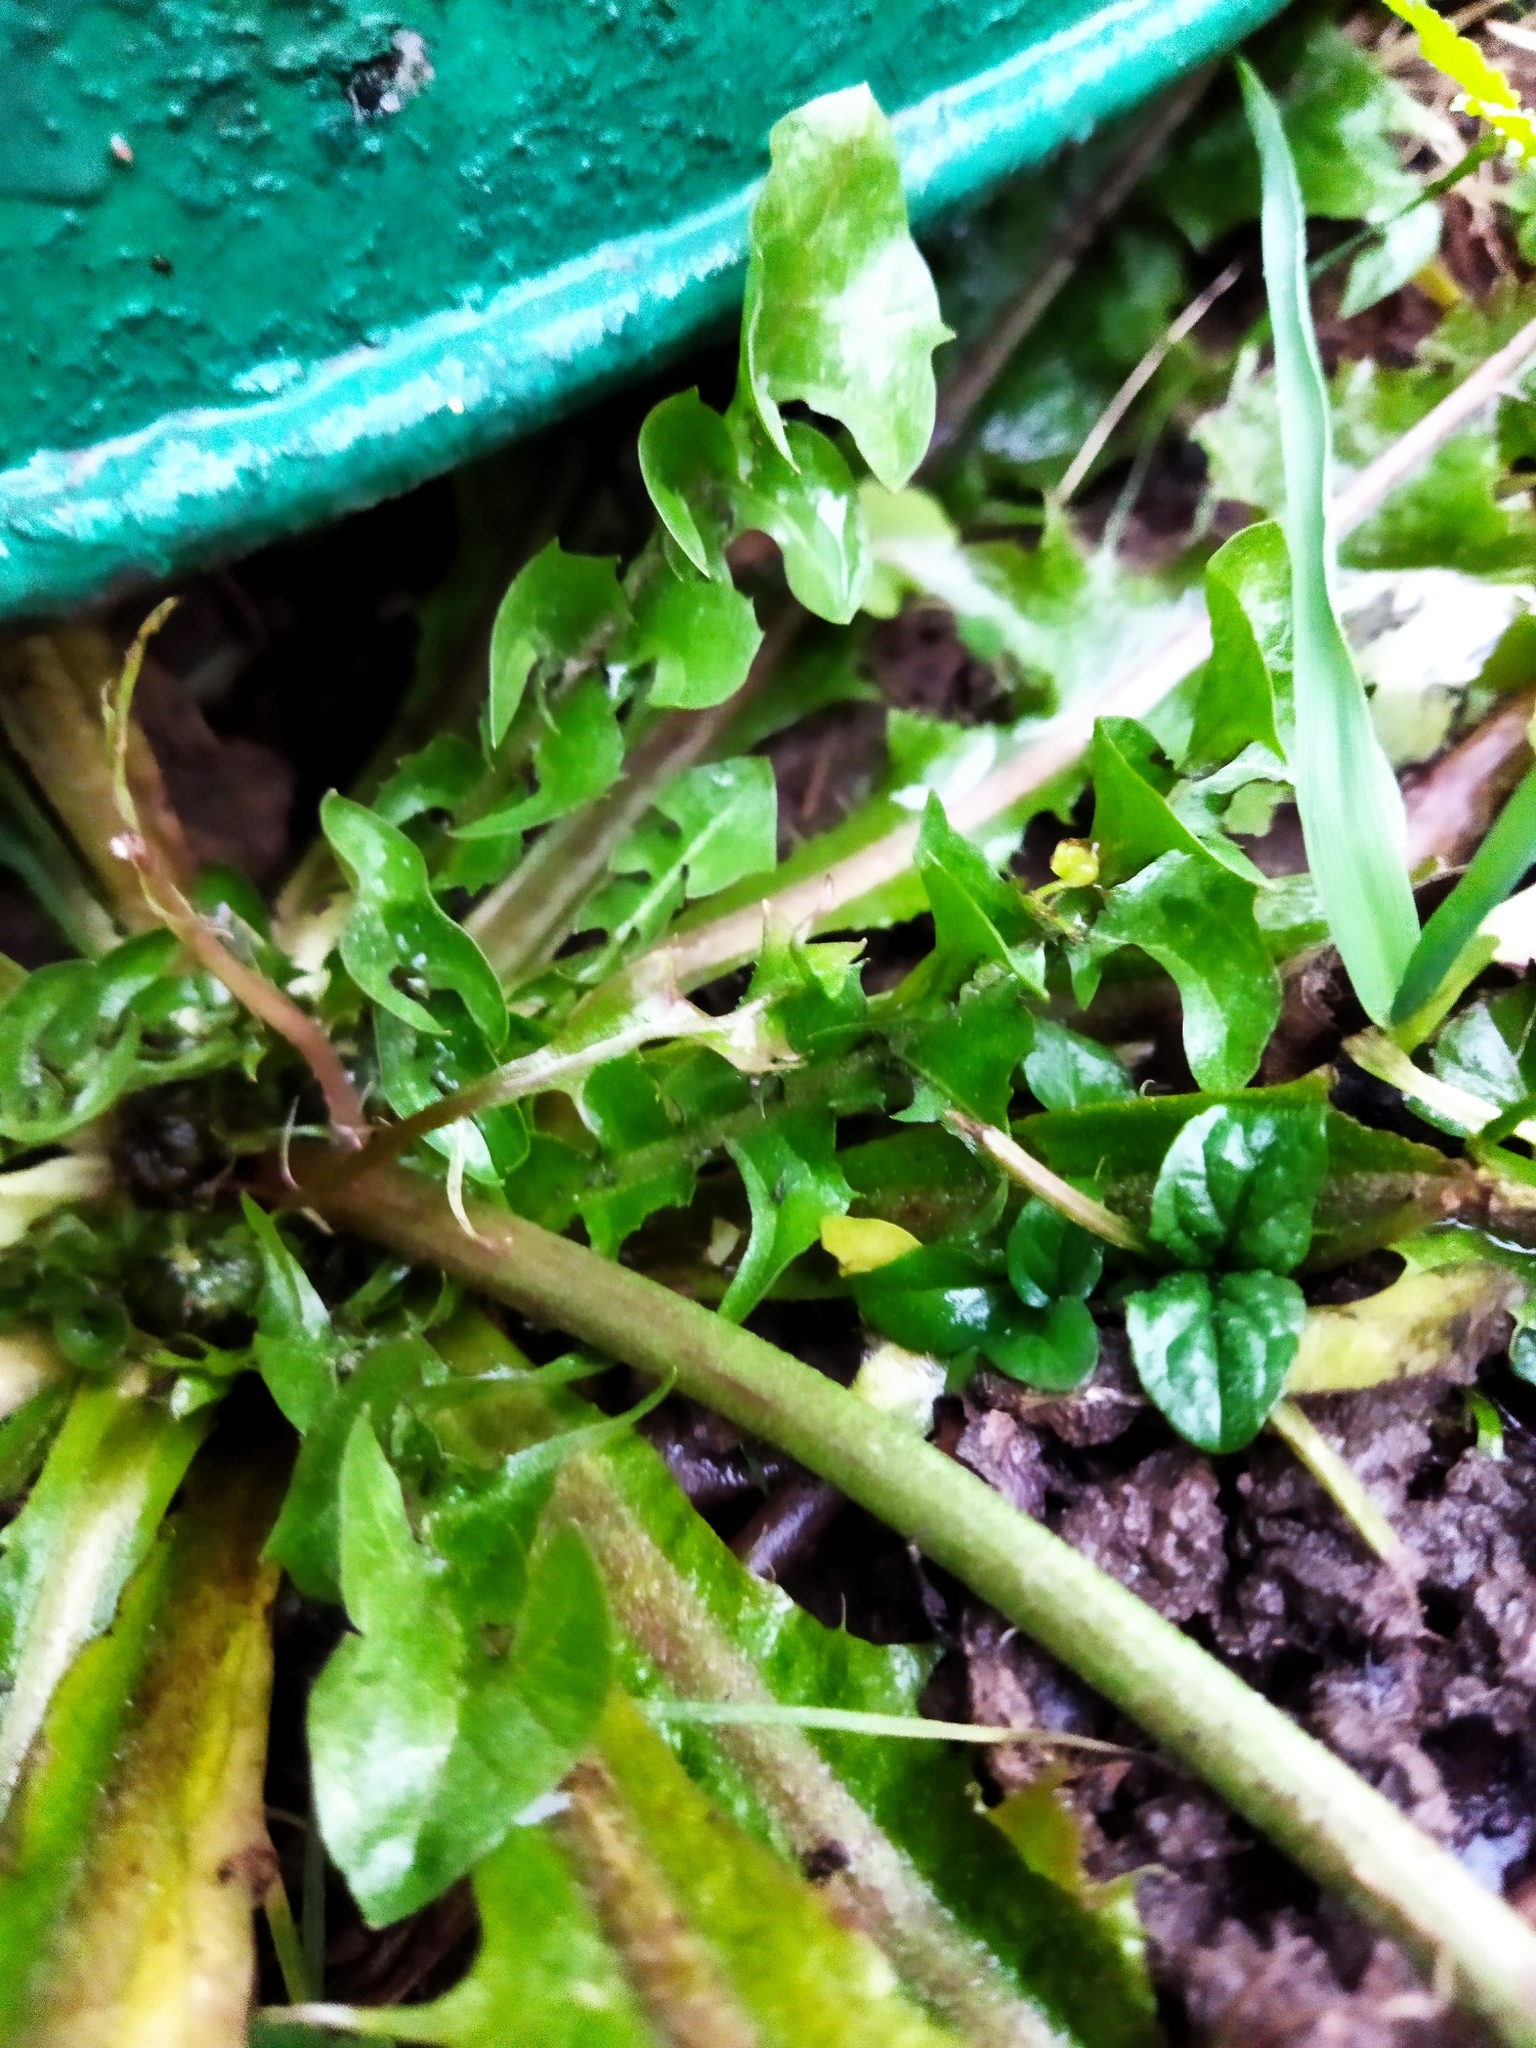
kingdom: Plantae
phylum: Tracheophyta
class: Magnoliopsida
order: Asterales
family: Asteraceae
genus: Taraxacum
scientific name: Taraxacum officinale
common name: Common dandelion
